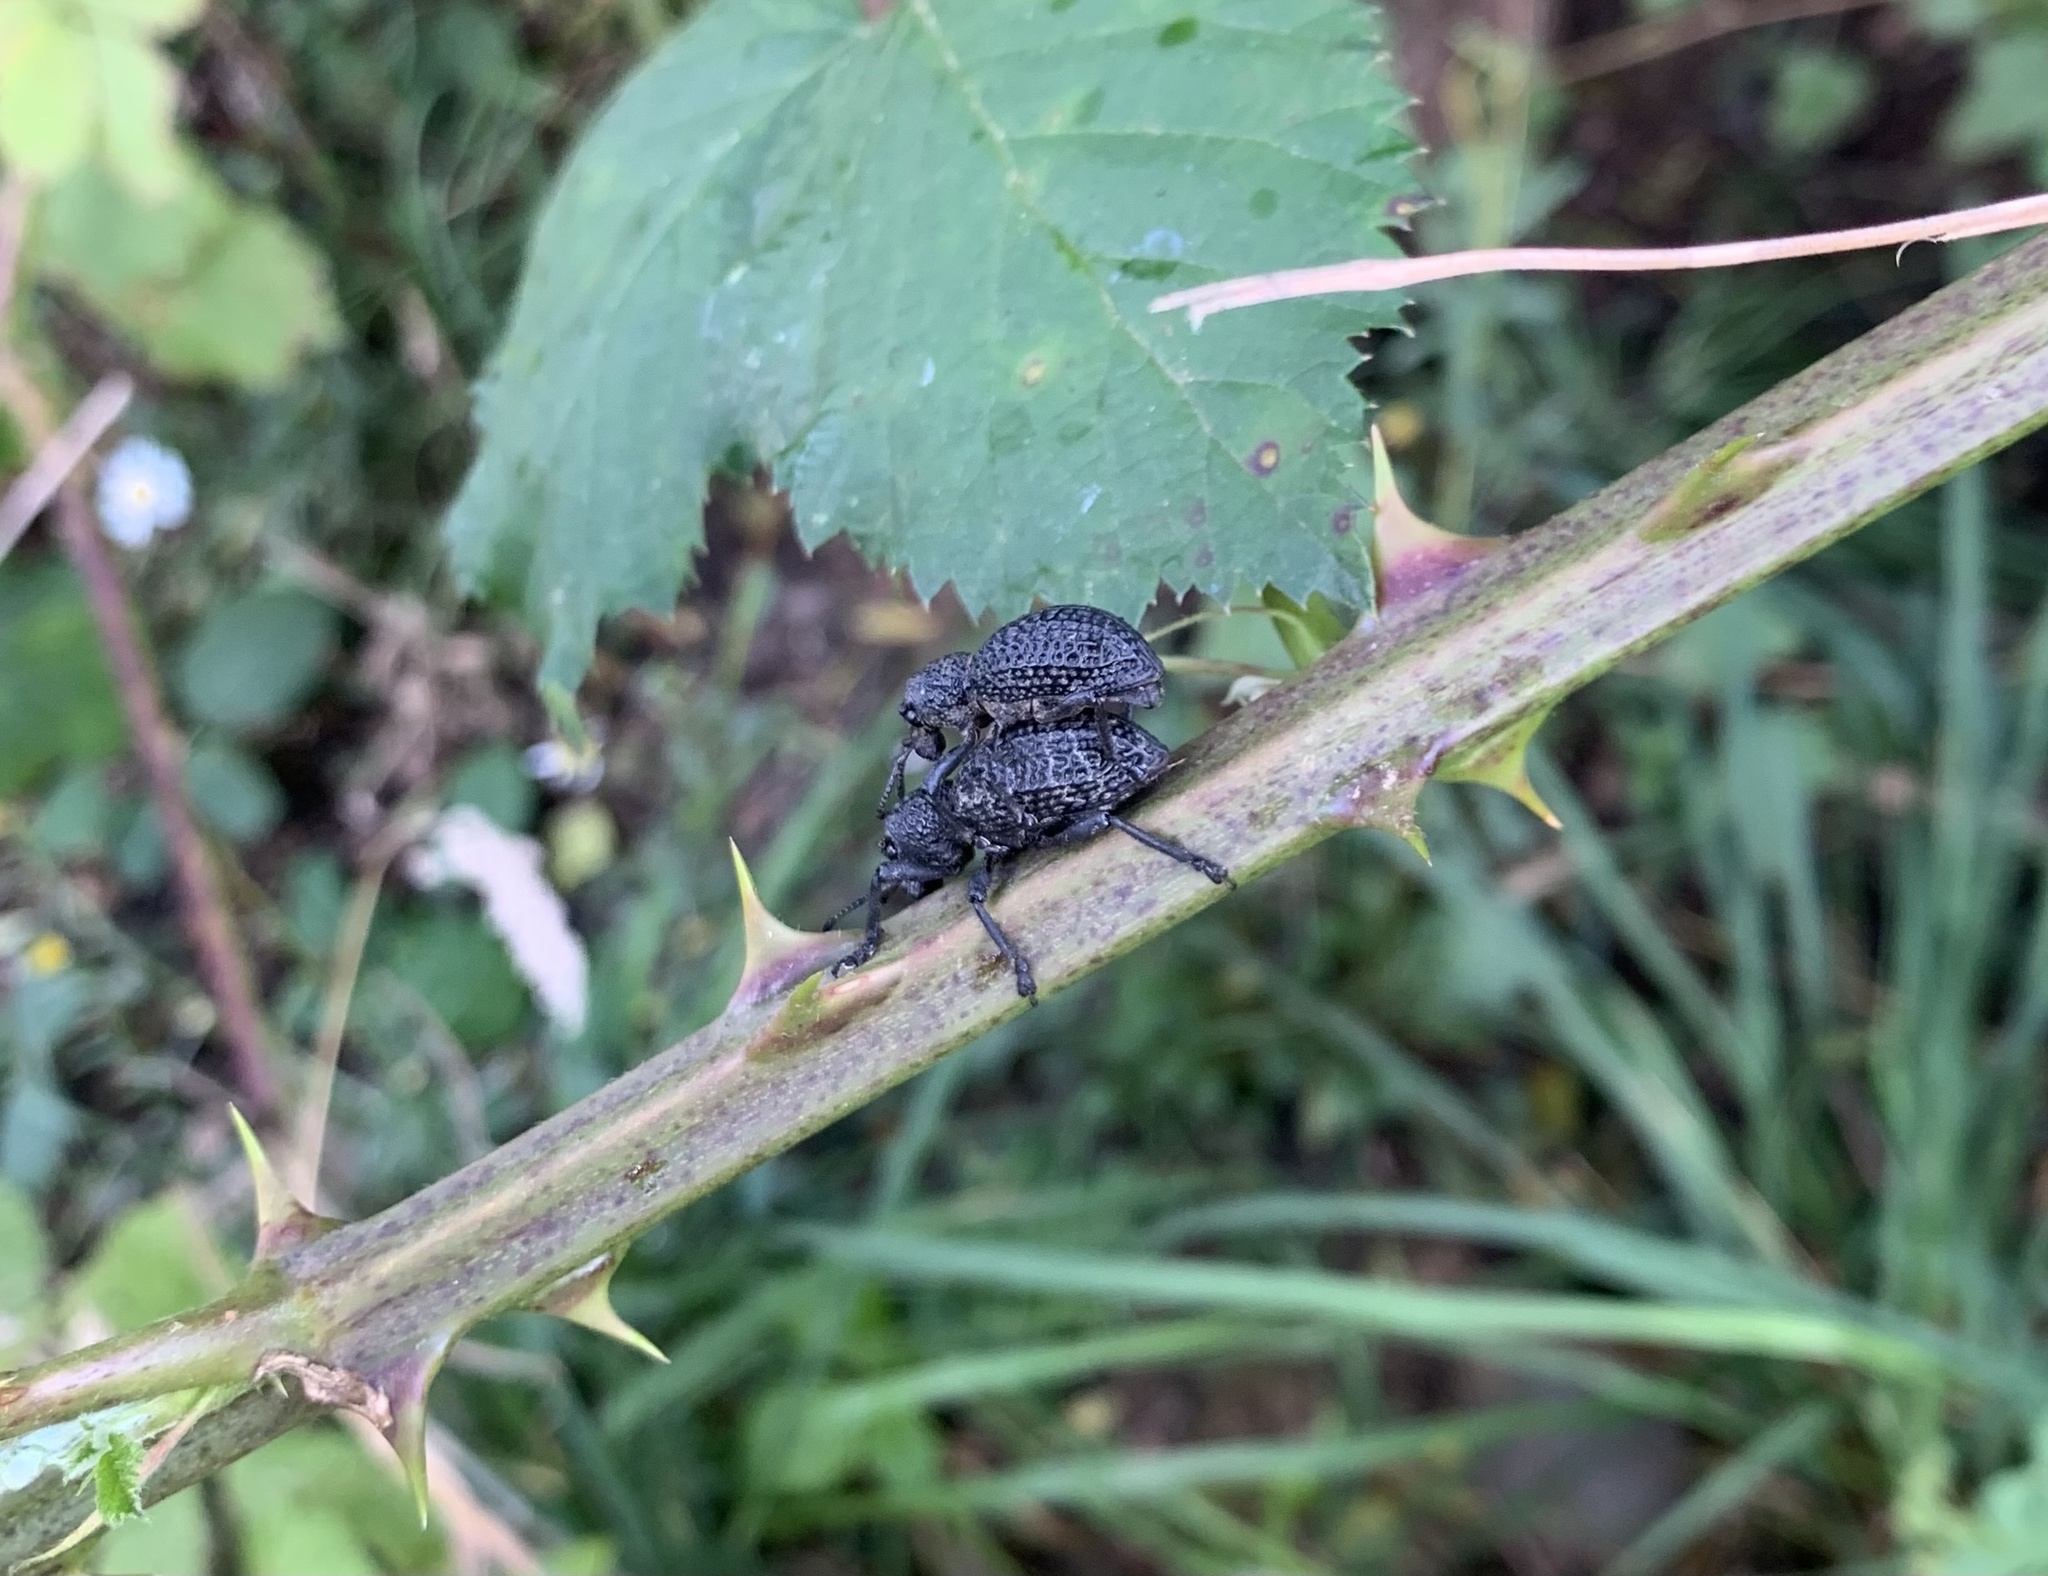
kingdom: Animalia
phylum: Arthropoda
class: Insecta
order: Coleoptera
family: Curculionidae
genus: Aegorhinus
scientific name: Aegorhinus superciliosus
